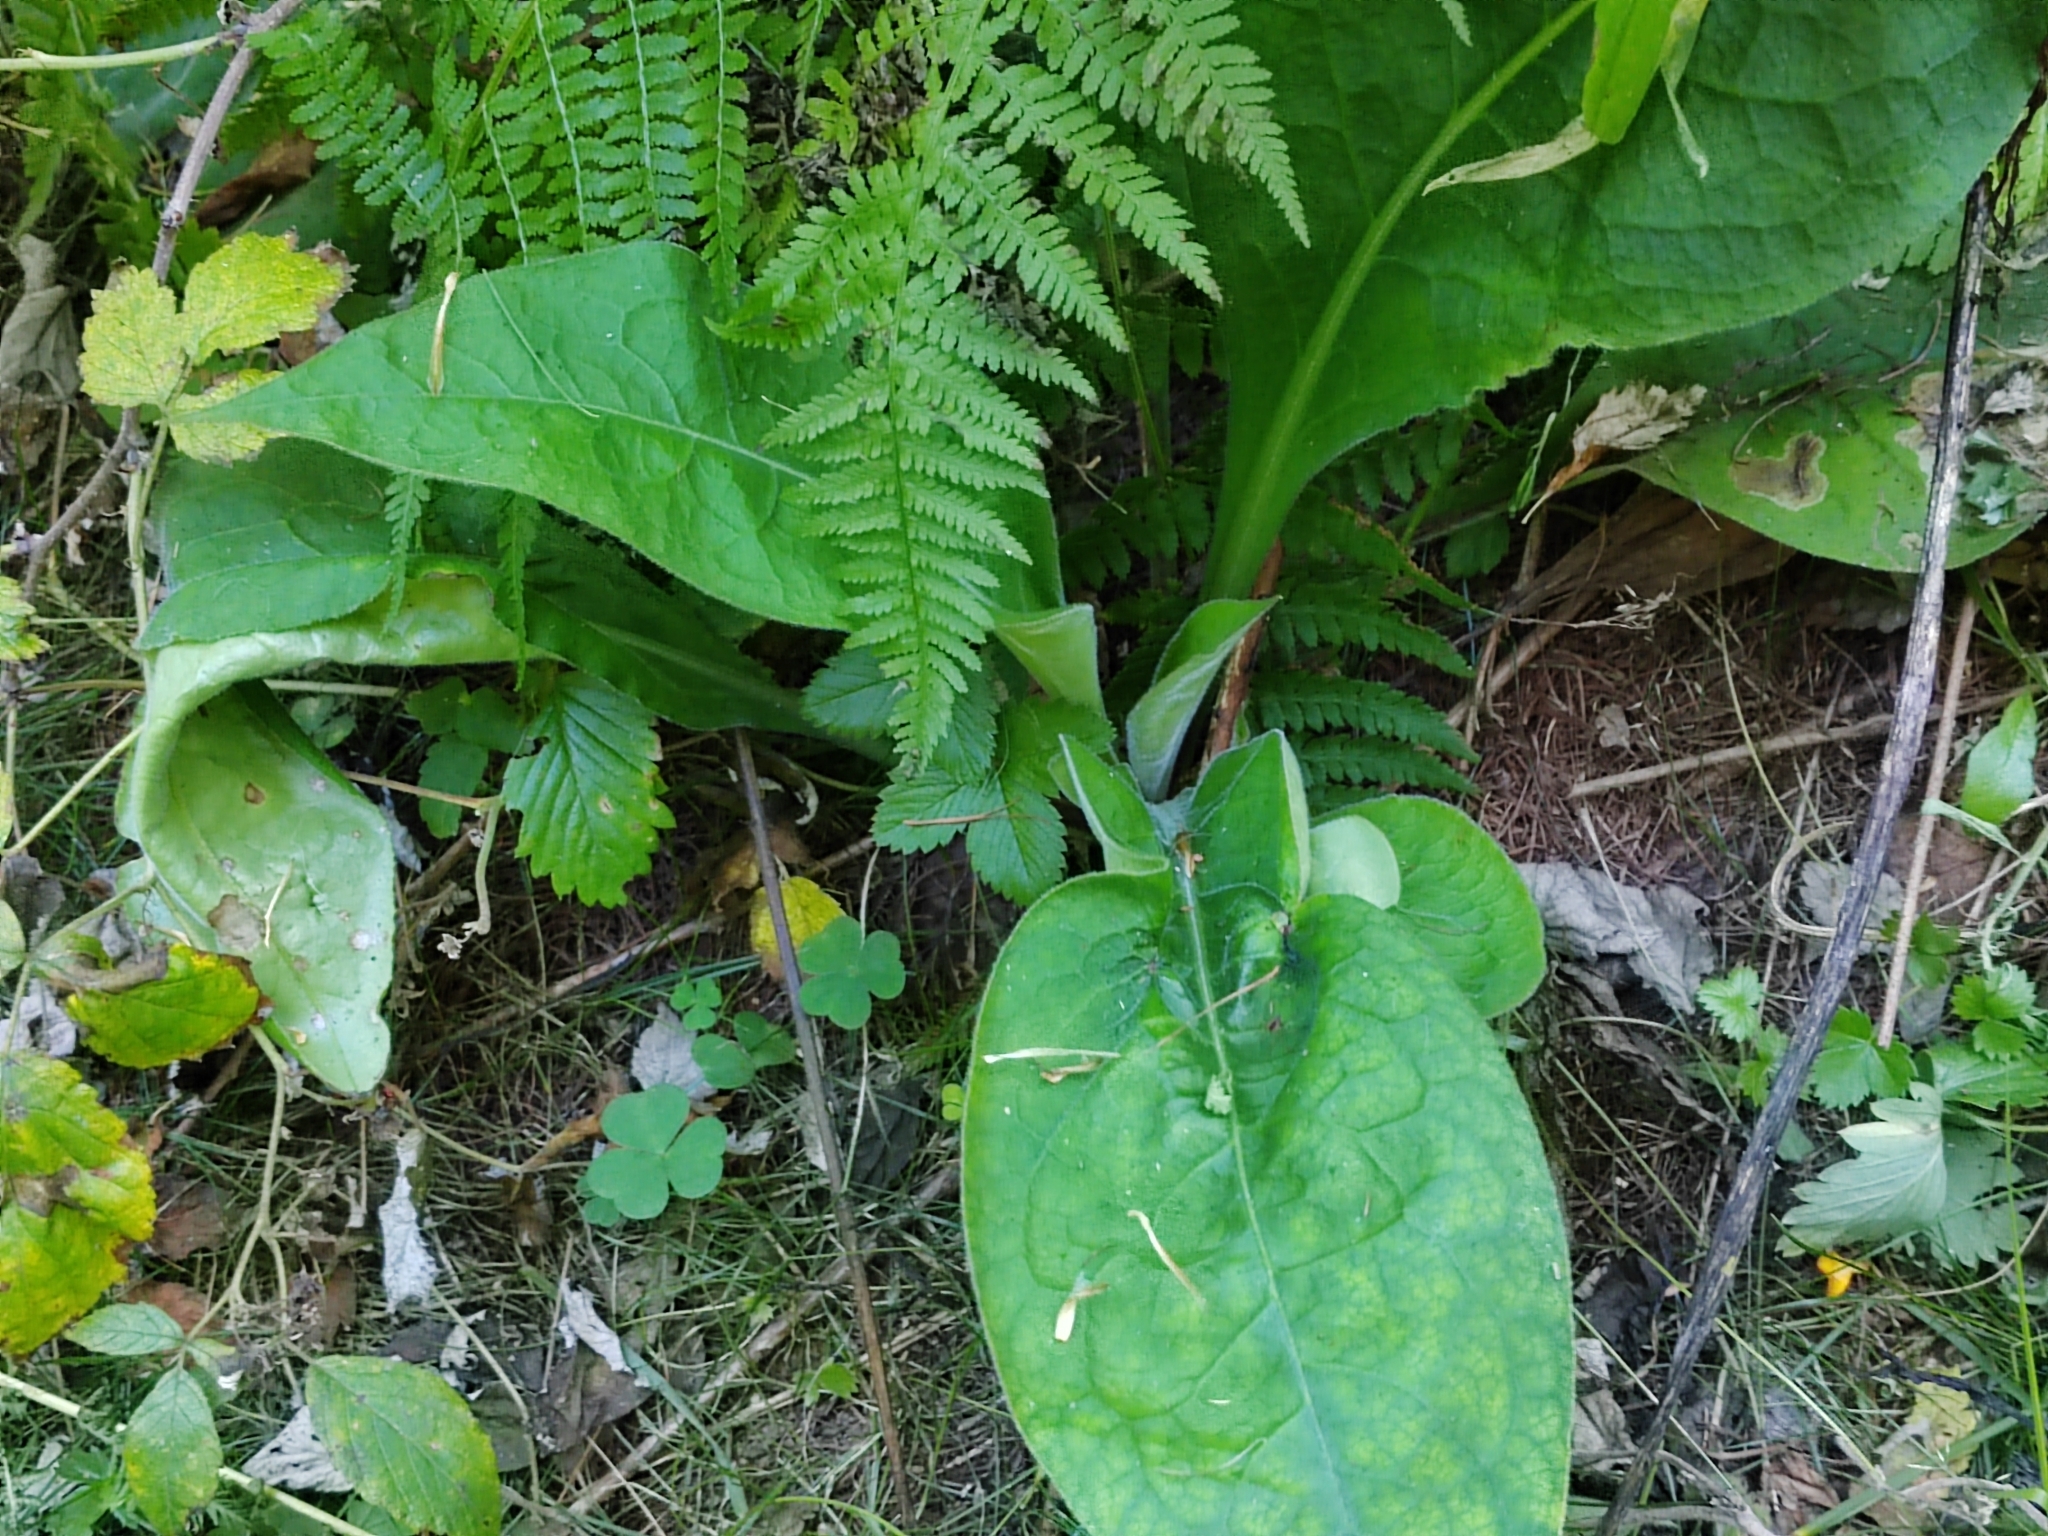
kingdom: Plantae
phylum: Tracheophyta
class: Magnoliopsida
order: Boraginales
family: Boraginaceae
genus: Pulmonaria
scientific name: Pulmonaria mollis
